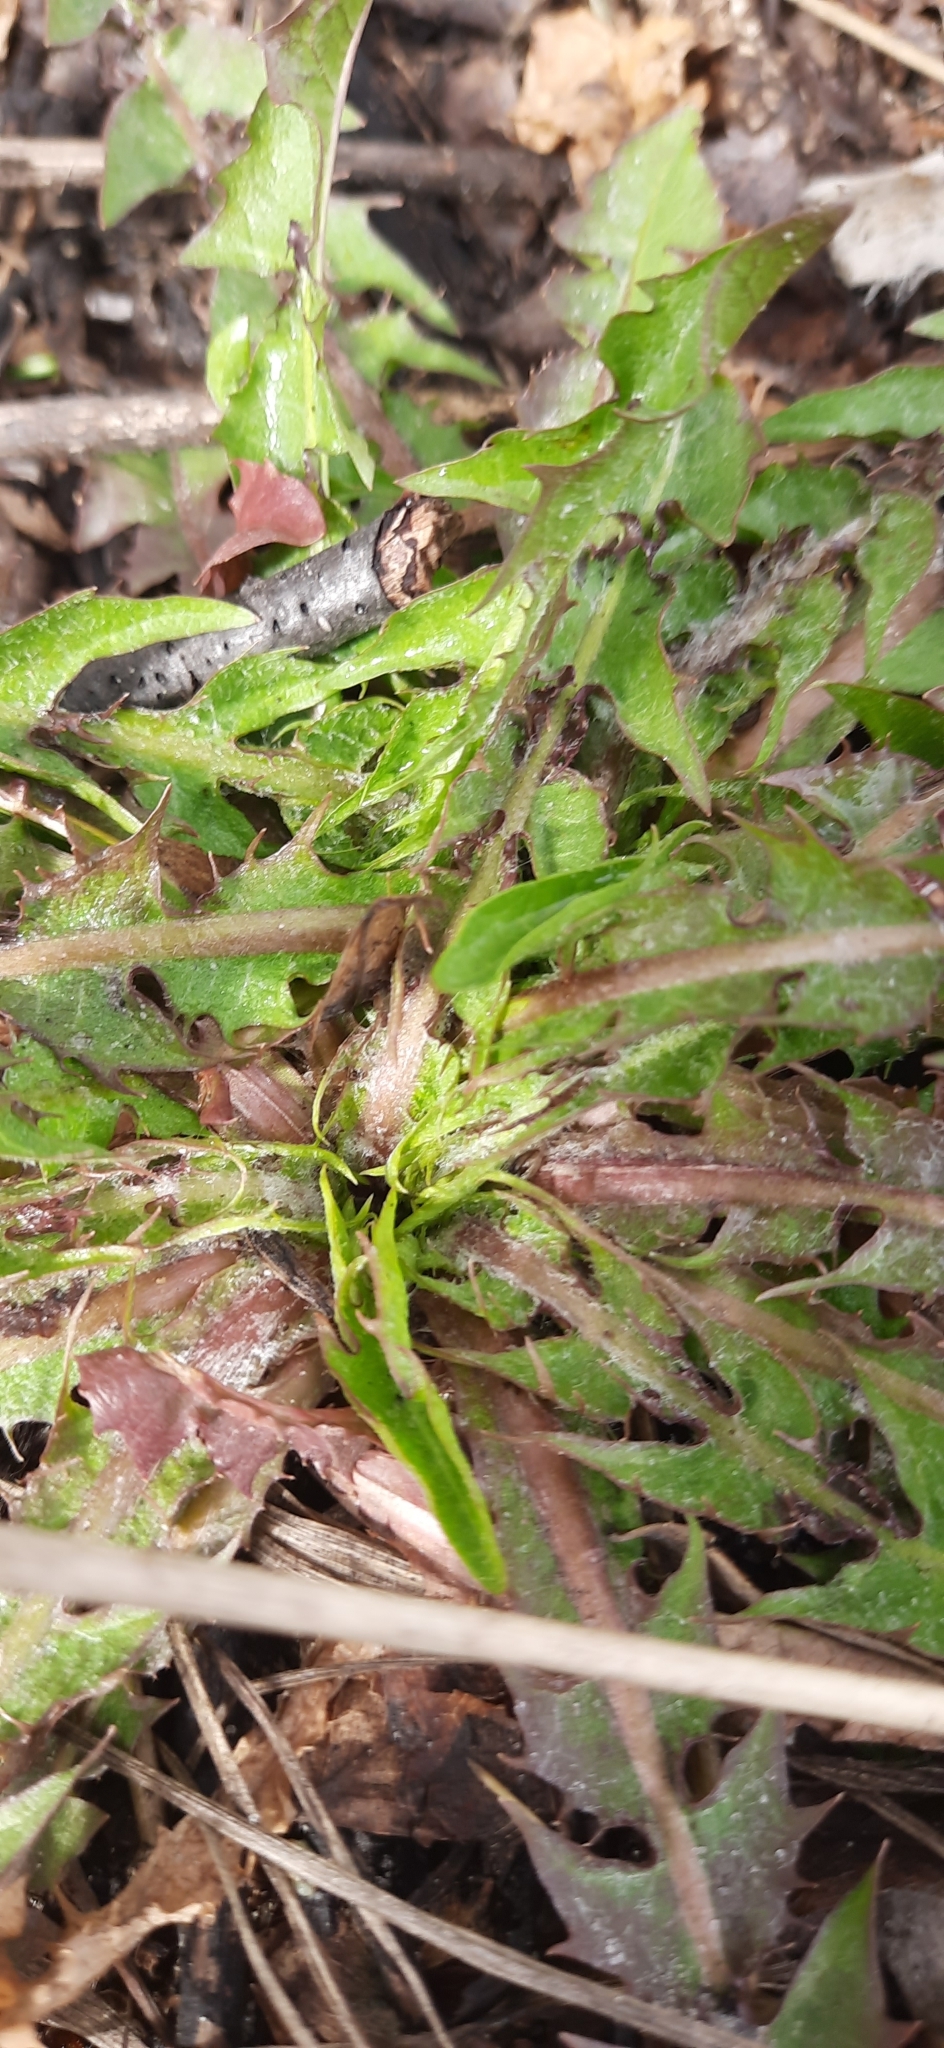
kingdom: Plantae
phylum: Tracheophyta
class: Magnoliopsida
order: Asterales
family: Asteraceae
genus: Taraxacum
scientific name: Taraxacum officinale
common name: Common dandelion
